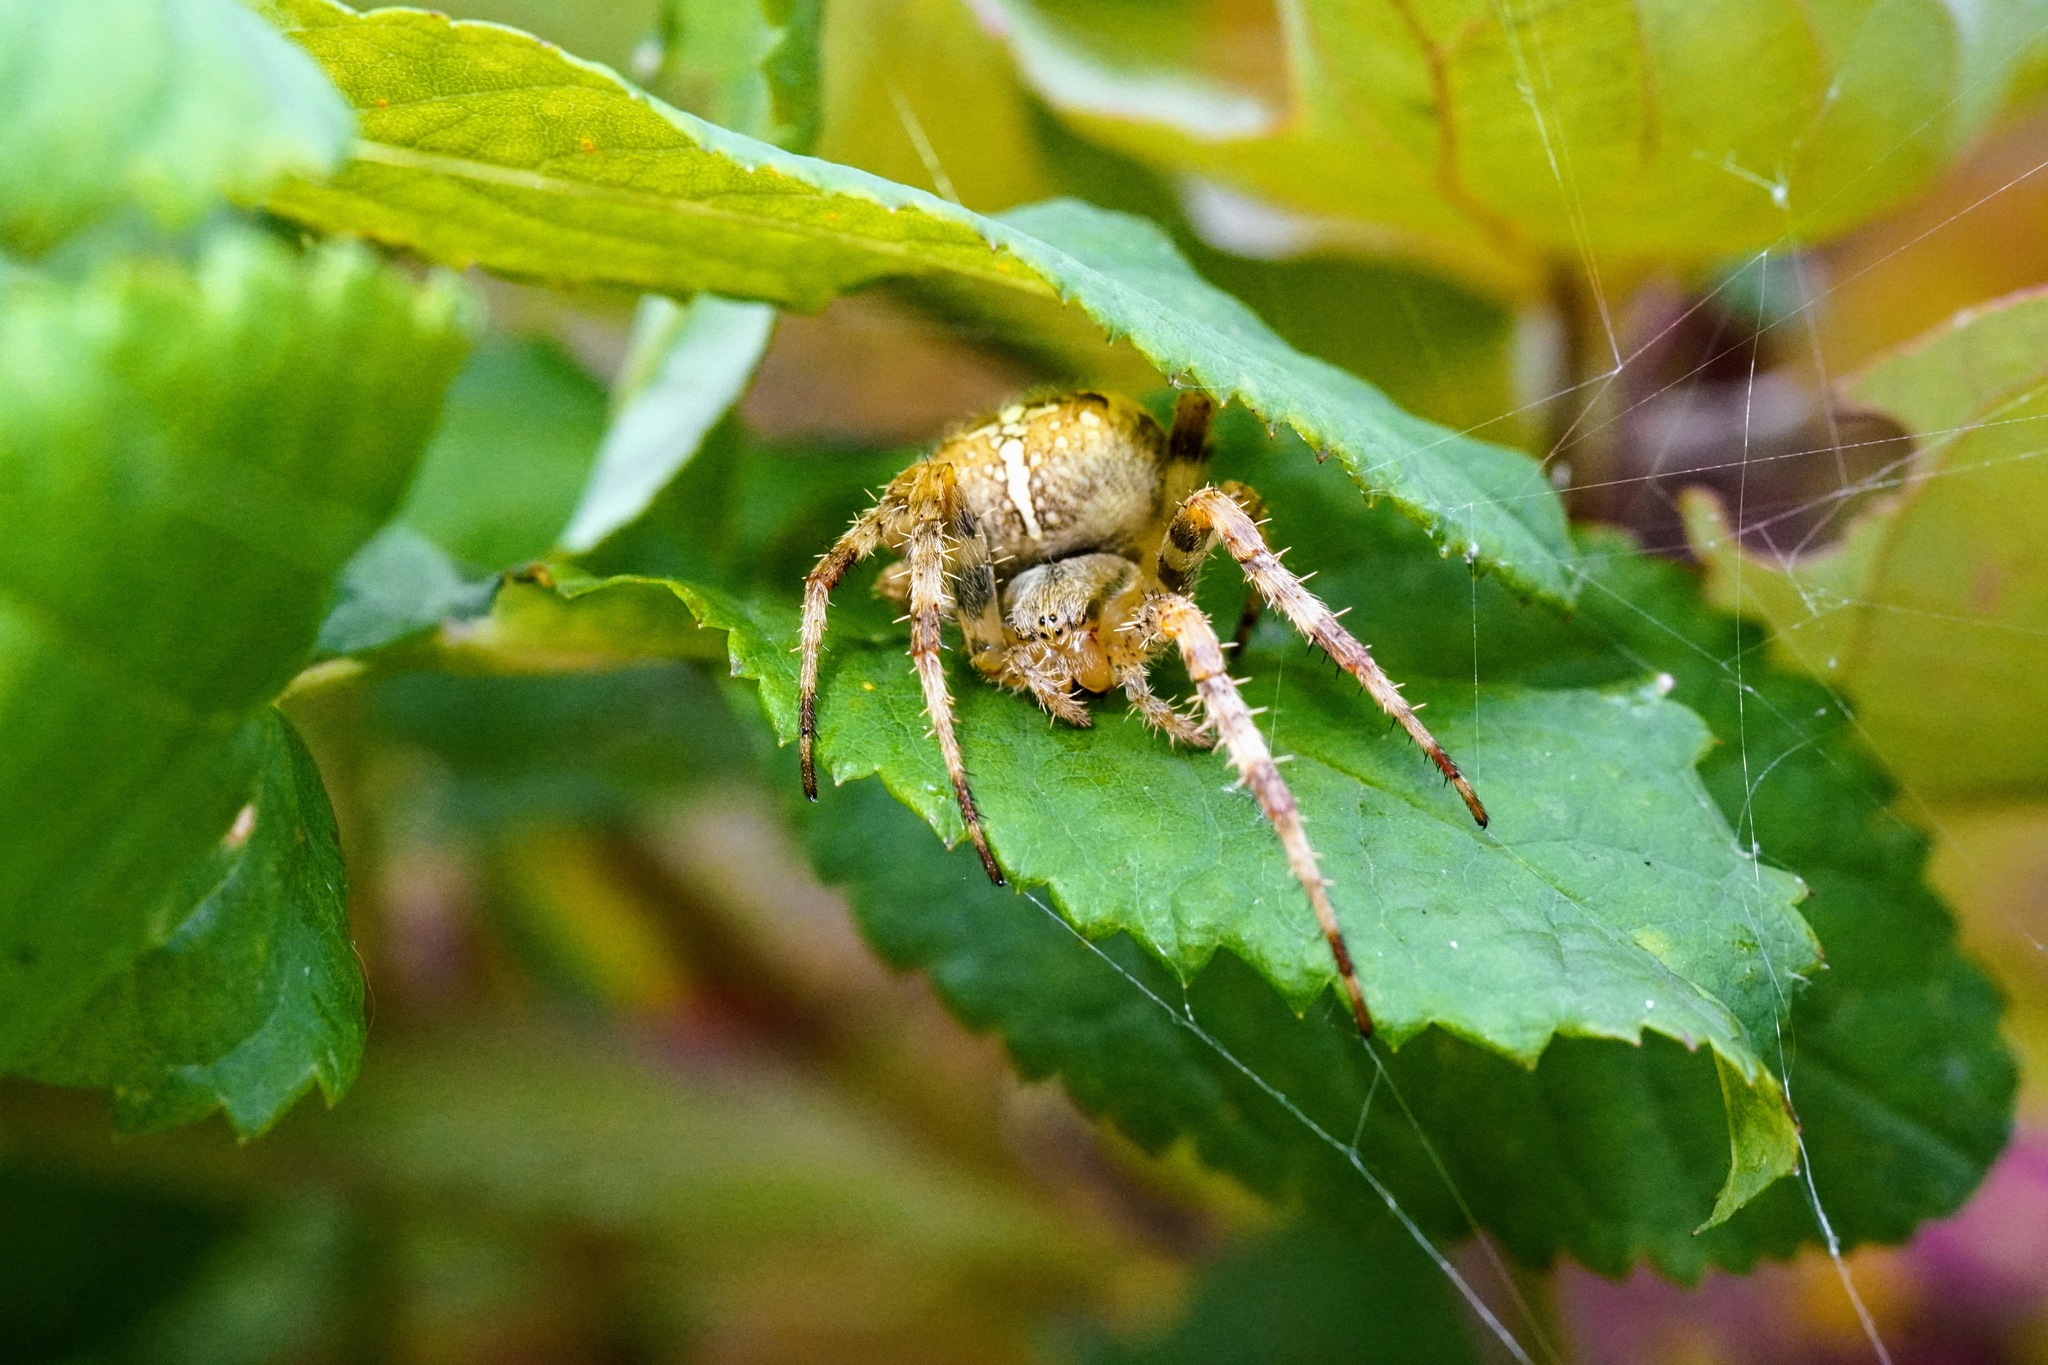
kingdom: Animalia
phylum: Arthropoda
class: Arachnida
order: Araneae
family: Araneidae
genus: Araneus
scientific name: Araneus diadematus
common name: Cross orbweaver
